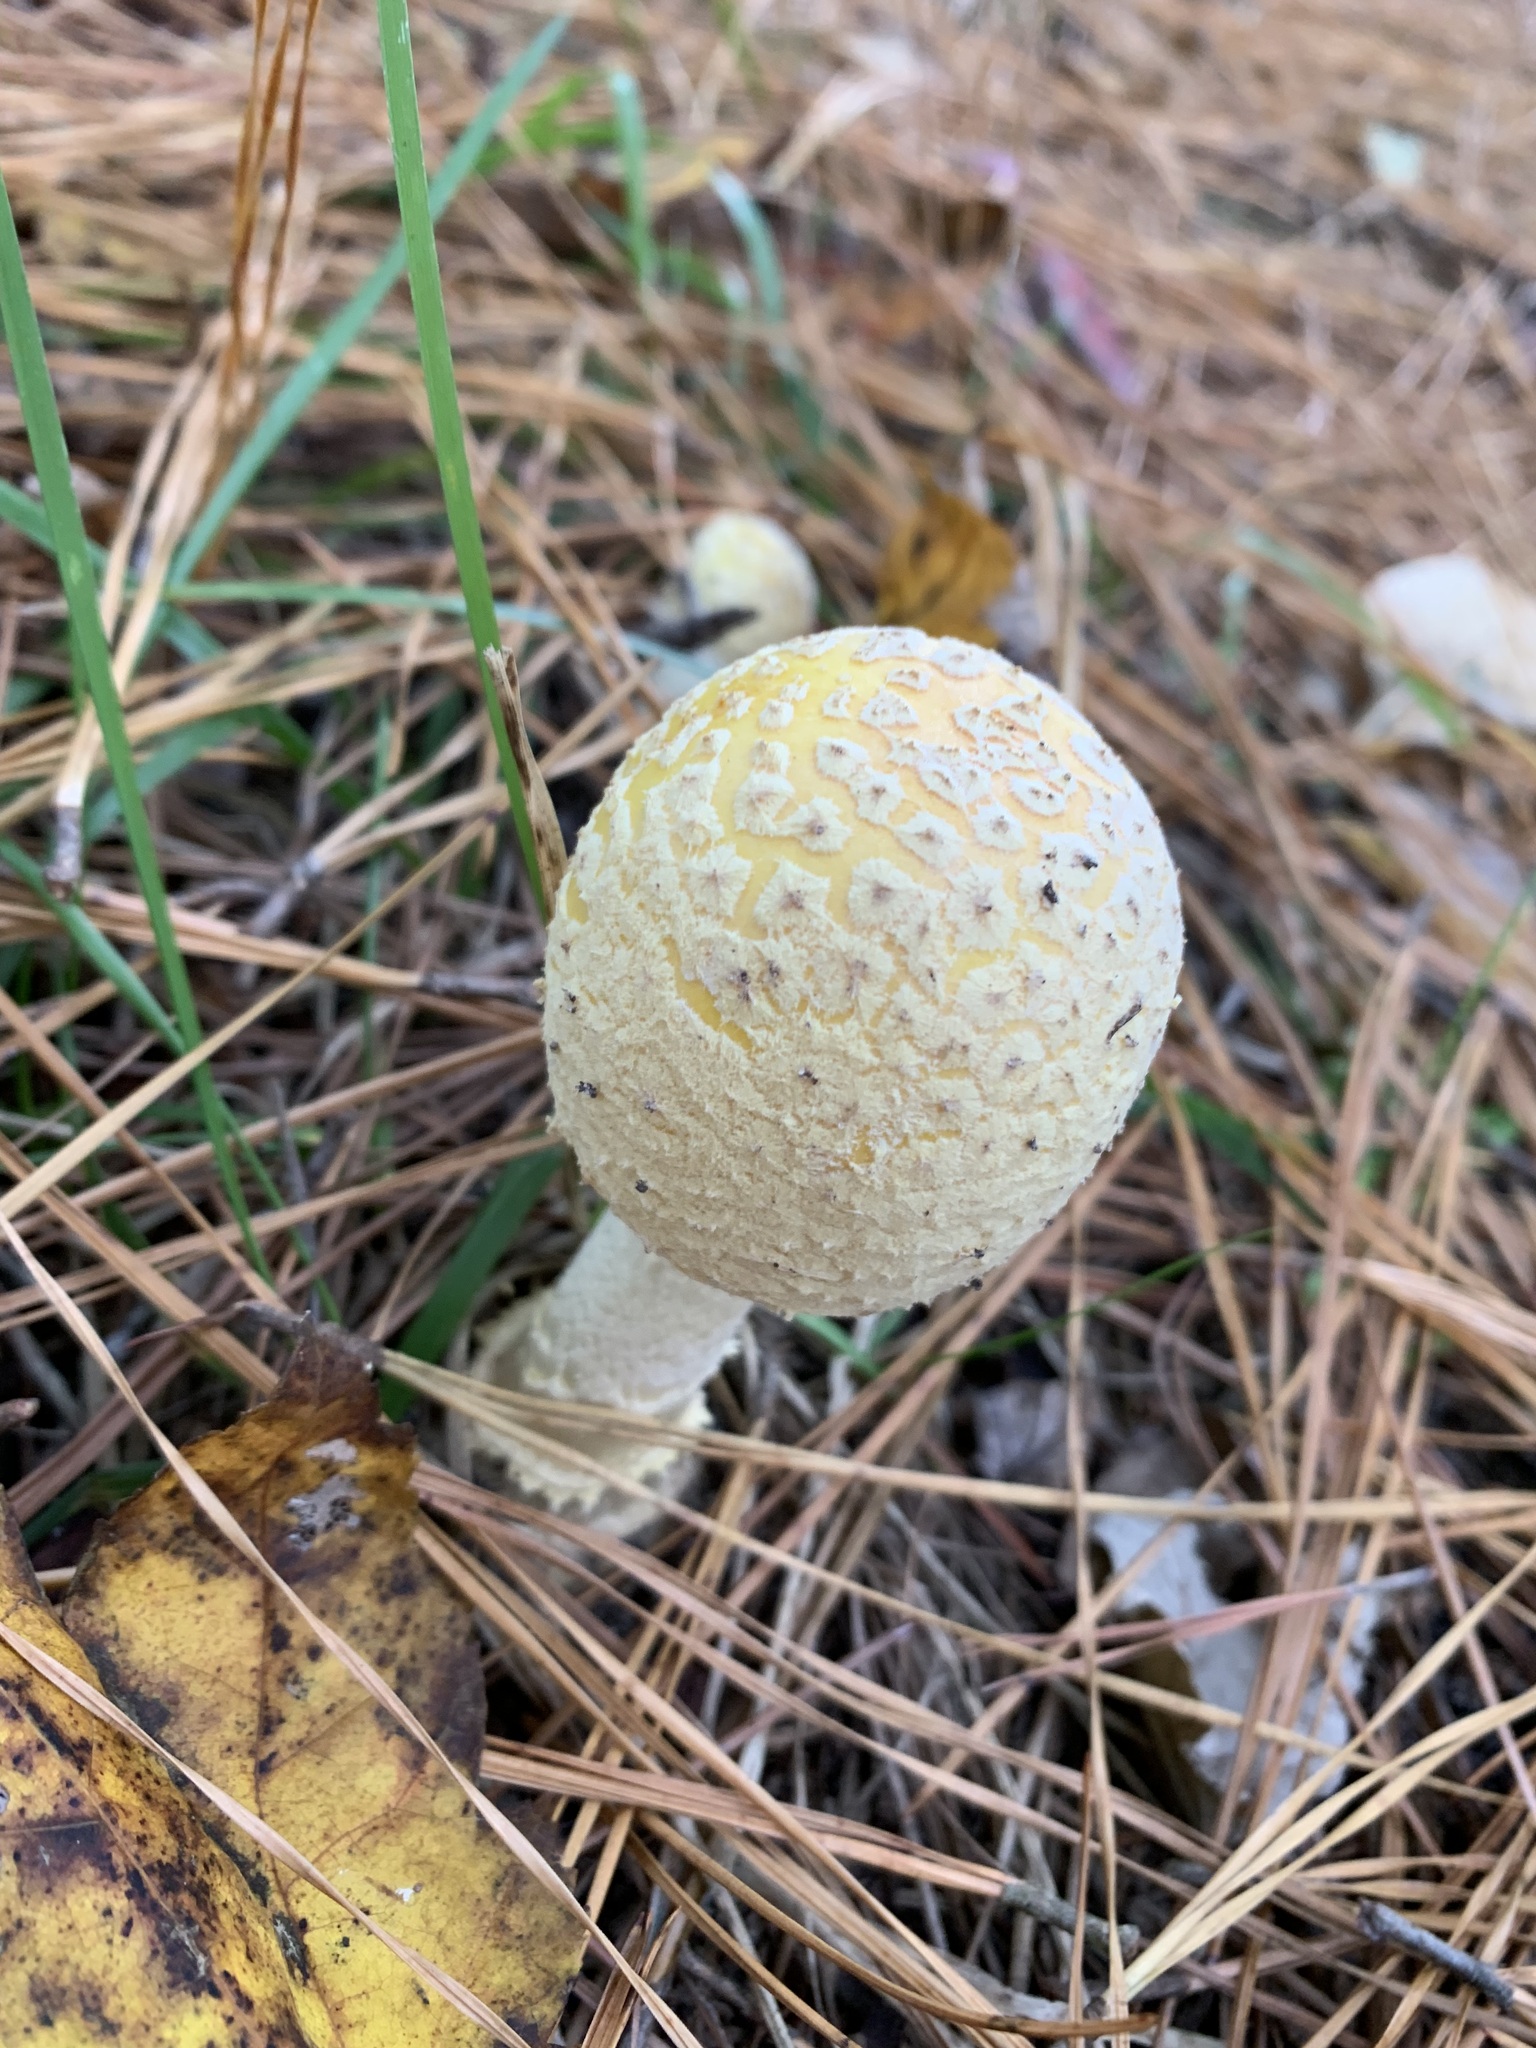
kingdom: Fungi
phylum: Basidiomycota
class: Agaricomycetes
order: Agaricales
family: Amanitaceae
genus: Amanita
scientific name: Amanita muscaria
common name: Fly agaric
